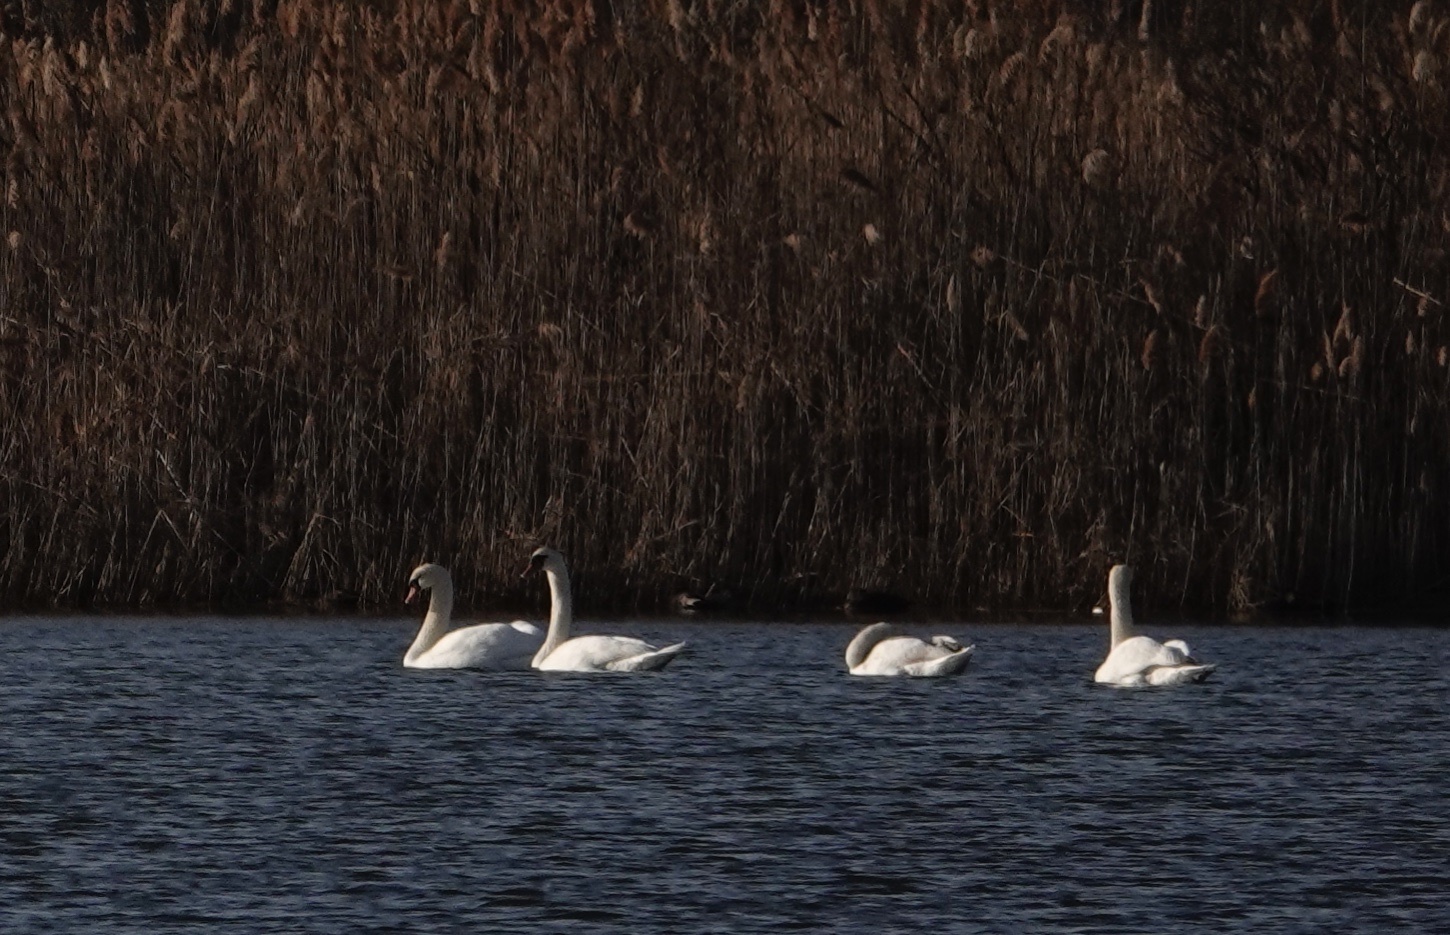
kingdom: Animalia
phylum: Chordata
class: Aves
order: Anseriformes
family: Anatidae
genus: Cygnus
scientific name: Cygnus olor
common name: Mute swan
